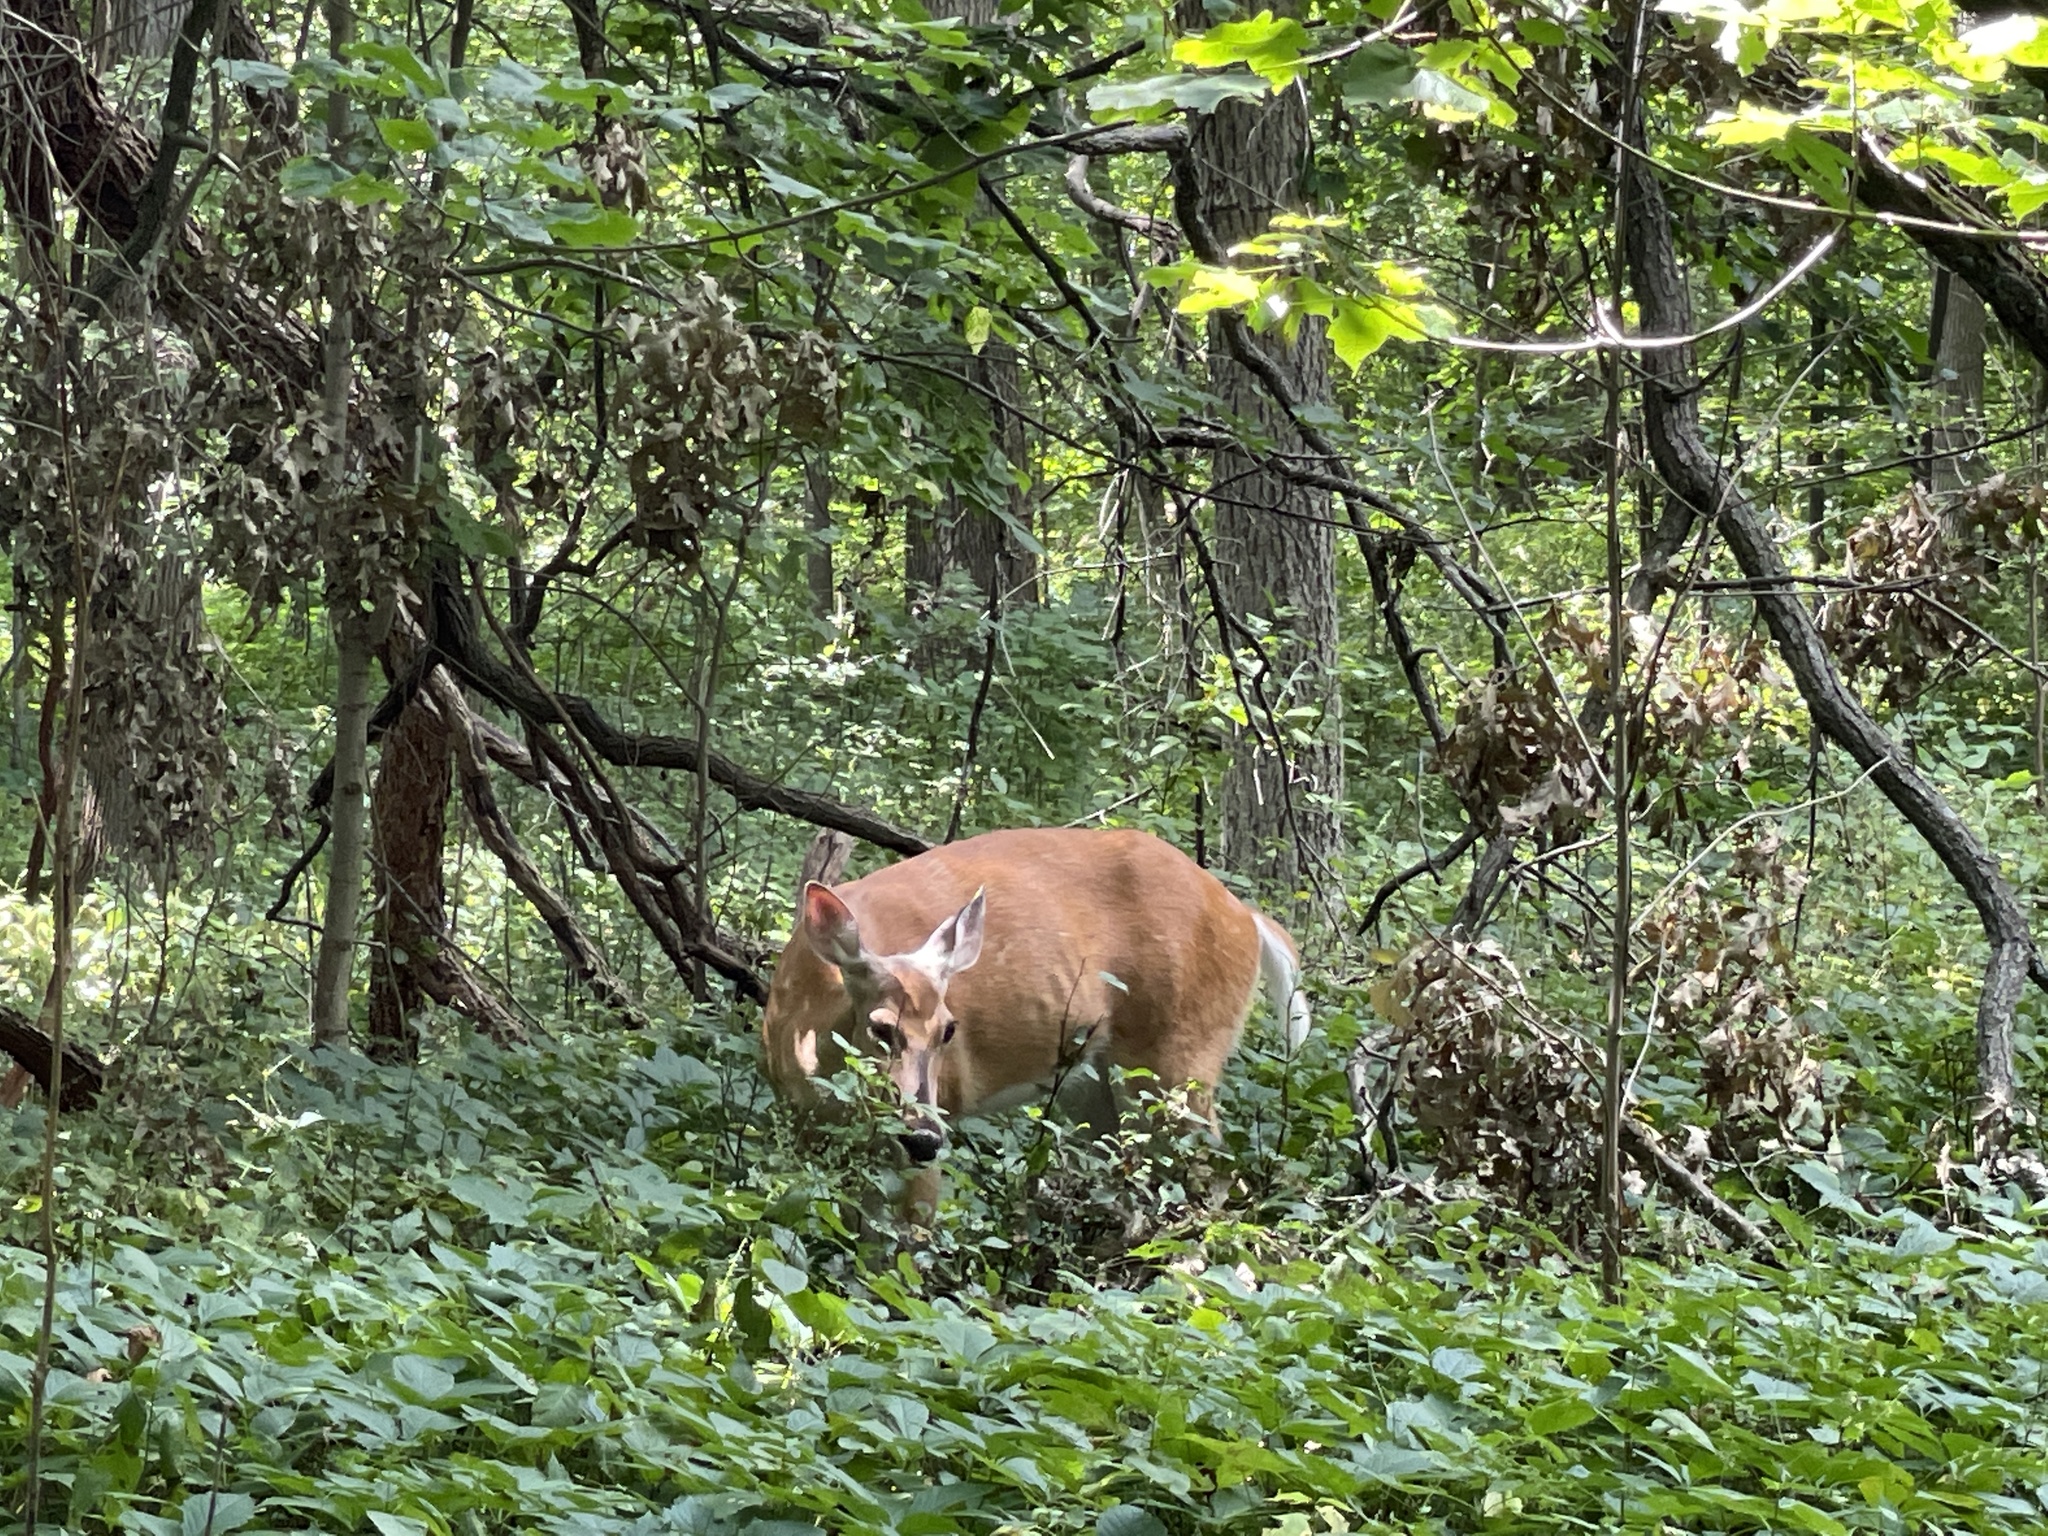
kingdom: Animalia
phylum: Chordata
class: Mammalia
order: Artiodactyla
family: Cervidae
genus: Odocoileus
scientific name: Odocoileus virginianus
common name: White-tailed deer
